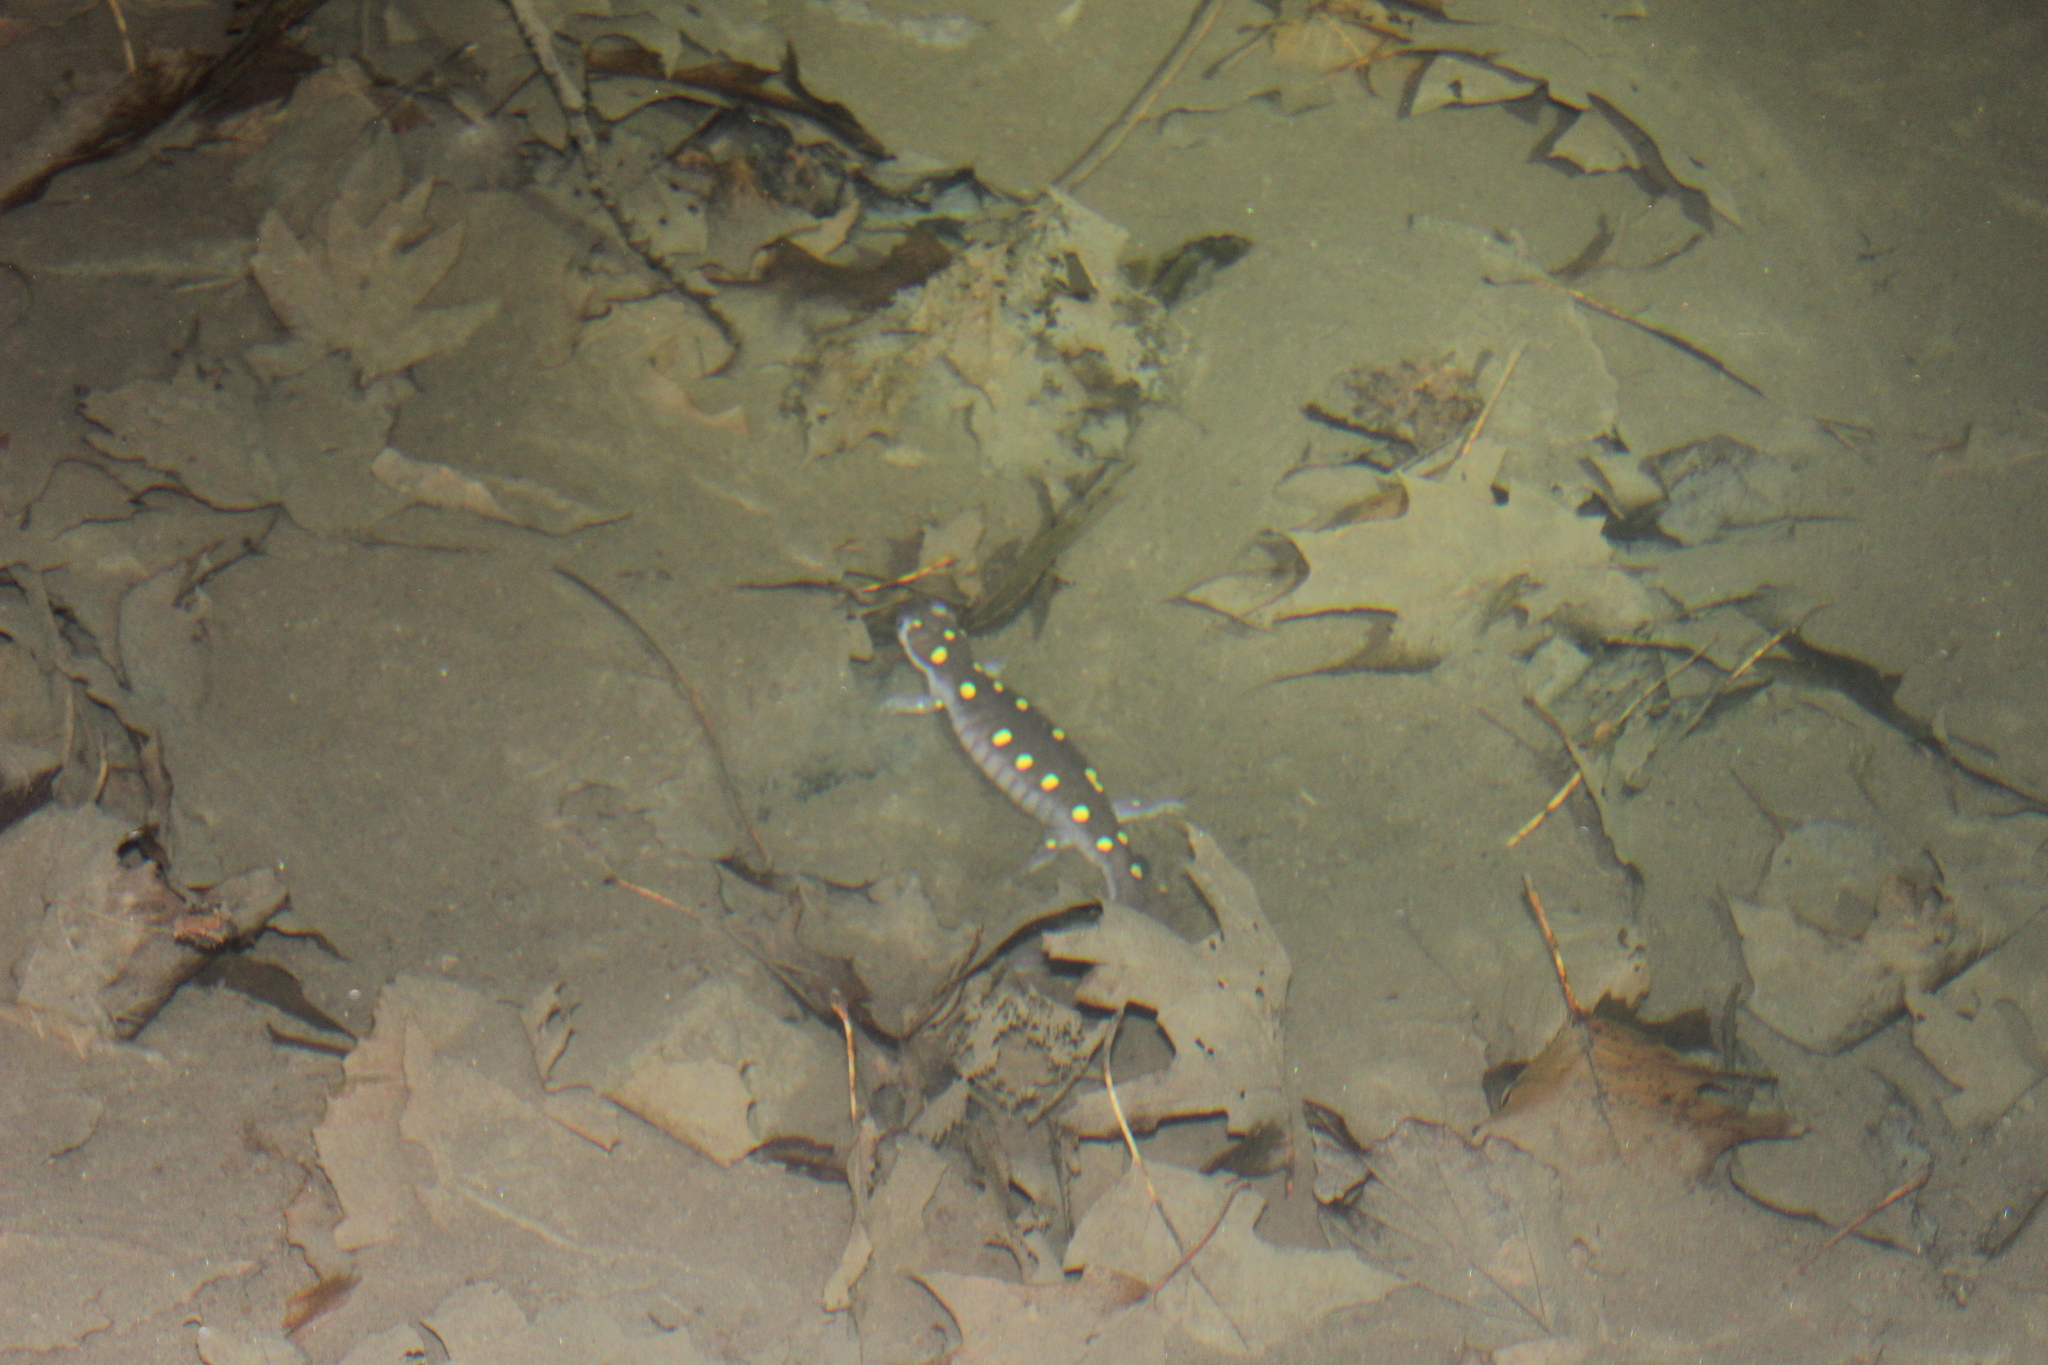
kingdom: Animalia
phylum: Chordata
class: Amphibia
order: Caudata
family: Ambystomatidae
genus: Ambystoma
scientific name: Ambystoma maculatum
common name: Spotted salamander
